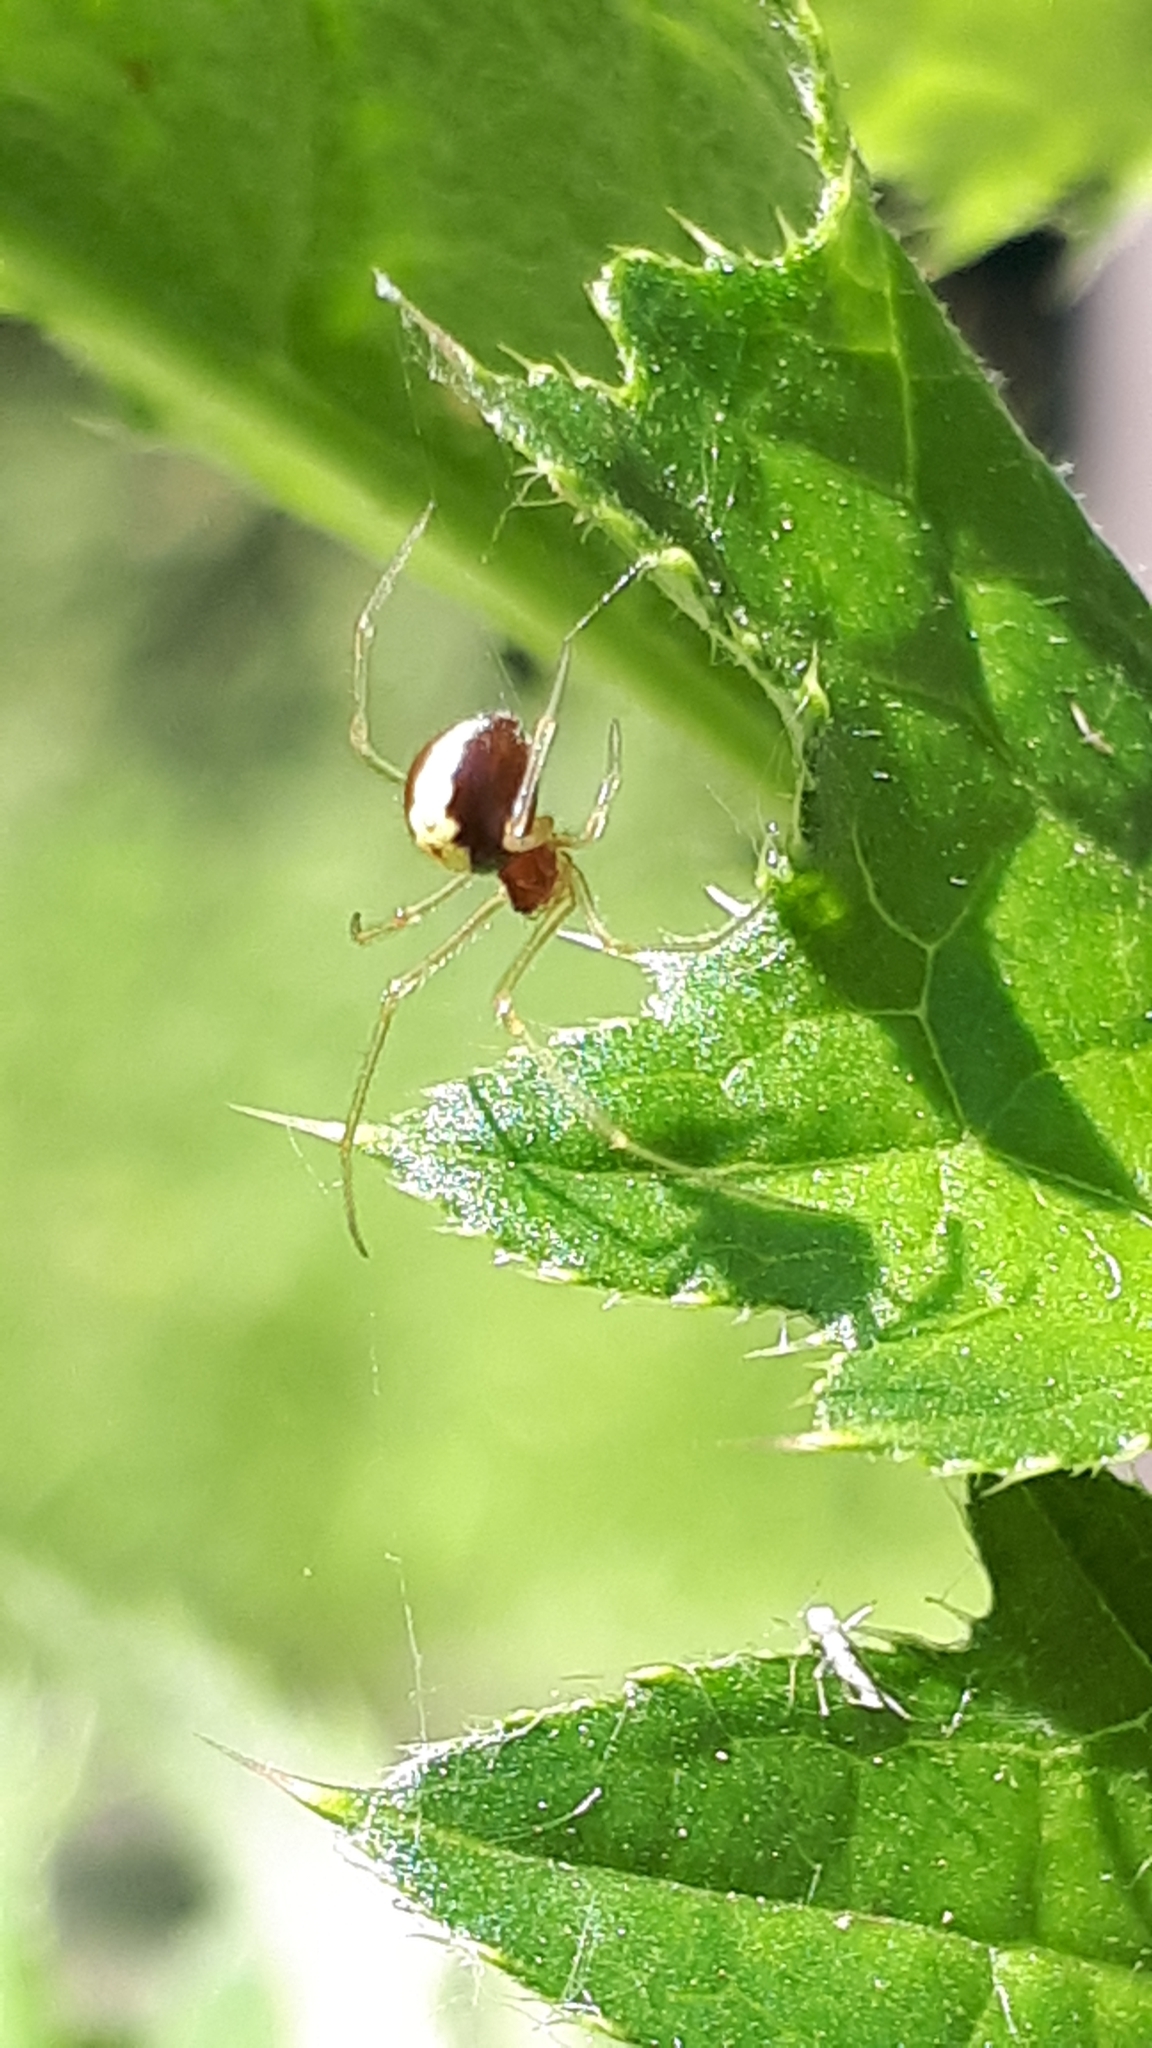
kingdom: Animalia
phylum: Arthropoda
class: Arachnida
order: Araneae
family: Theridiidae
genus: Neottiura
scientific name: Neottiura bimaculata
